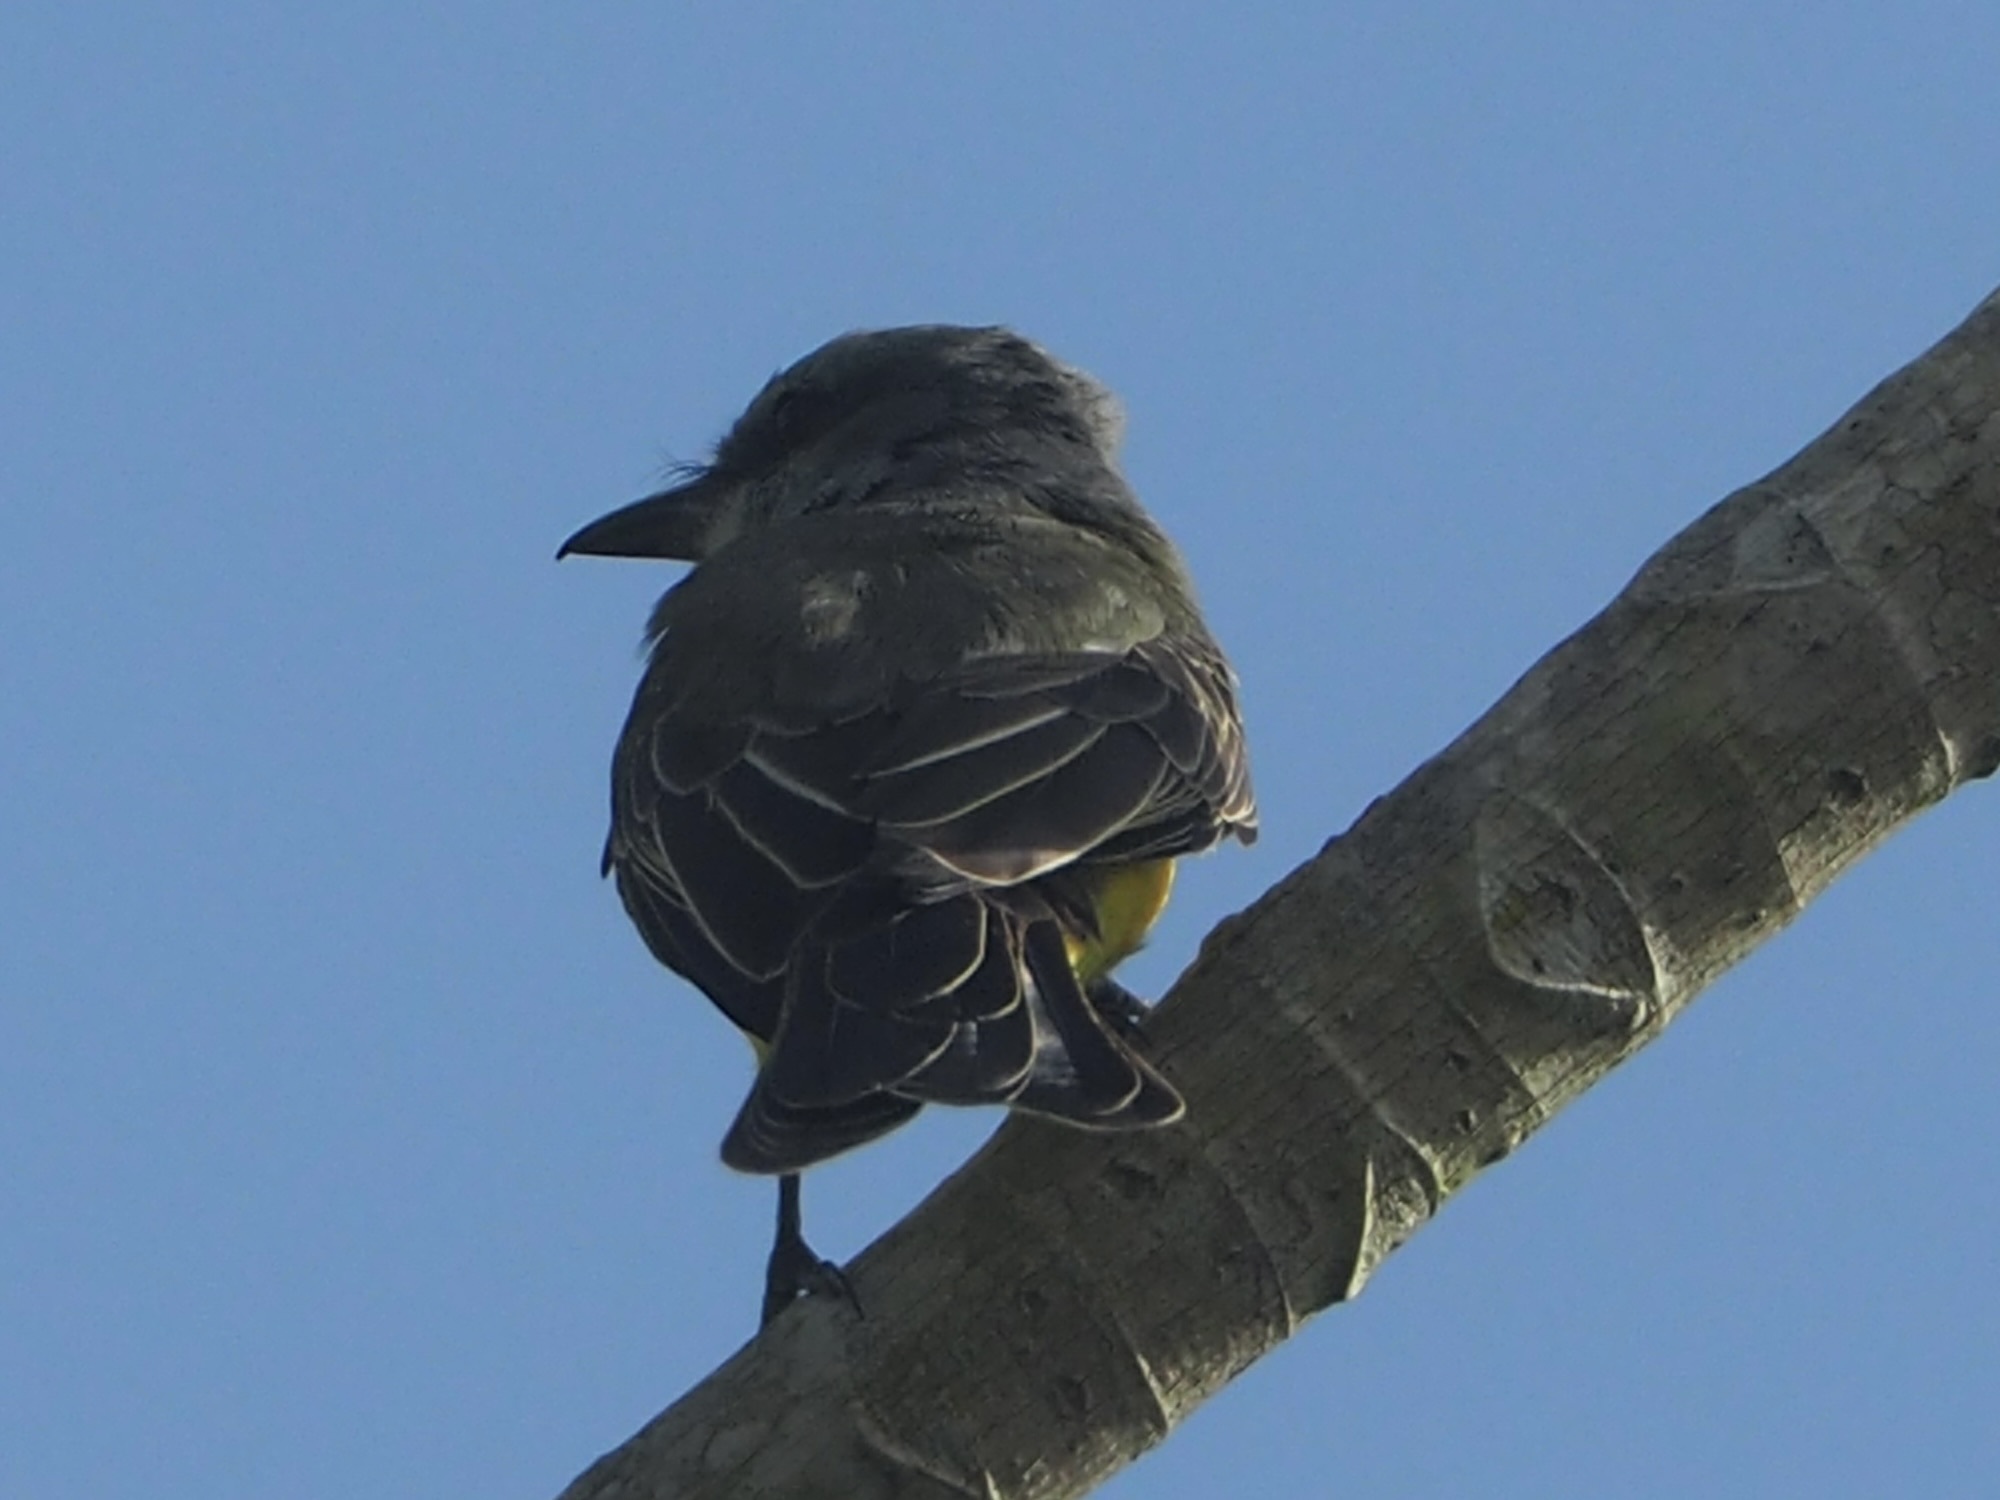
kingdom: Animalia
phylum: Chordata
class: Aves
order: Passeriformes
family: Tyrannidae
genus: Tyrannus
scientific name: Tyrannus melancholicus
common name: Tropical kingbird
